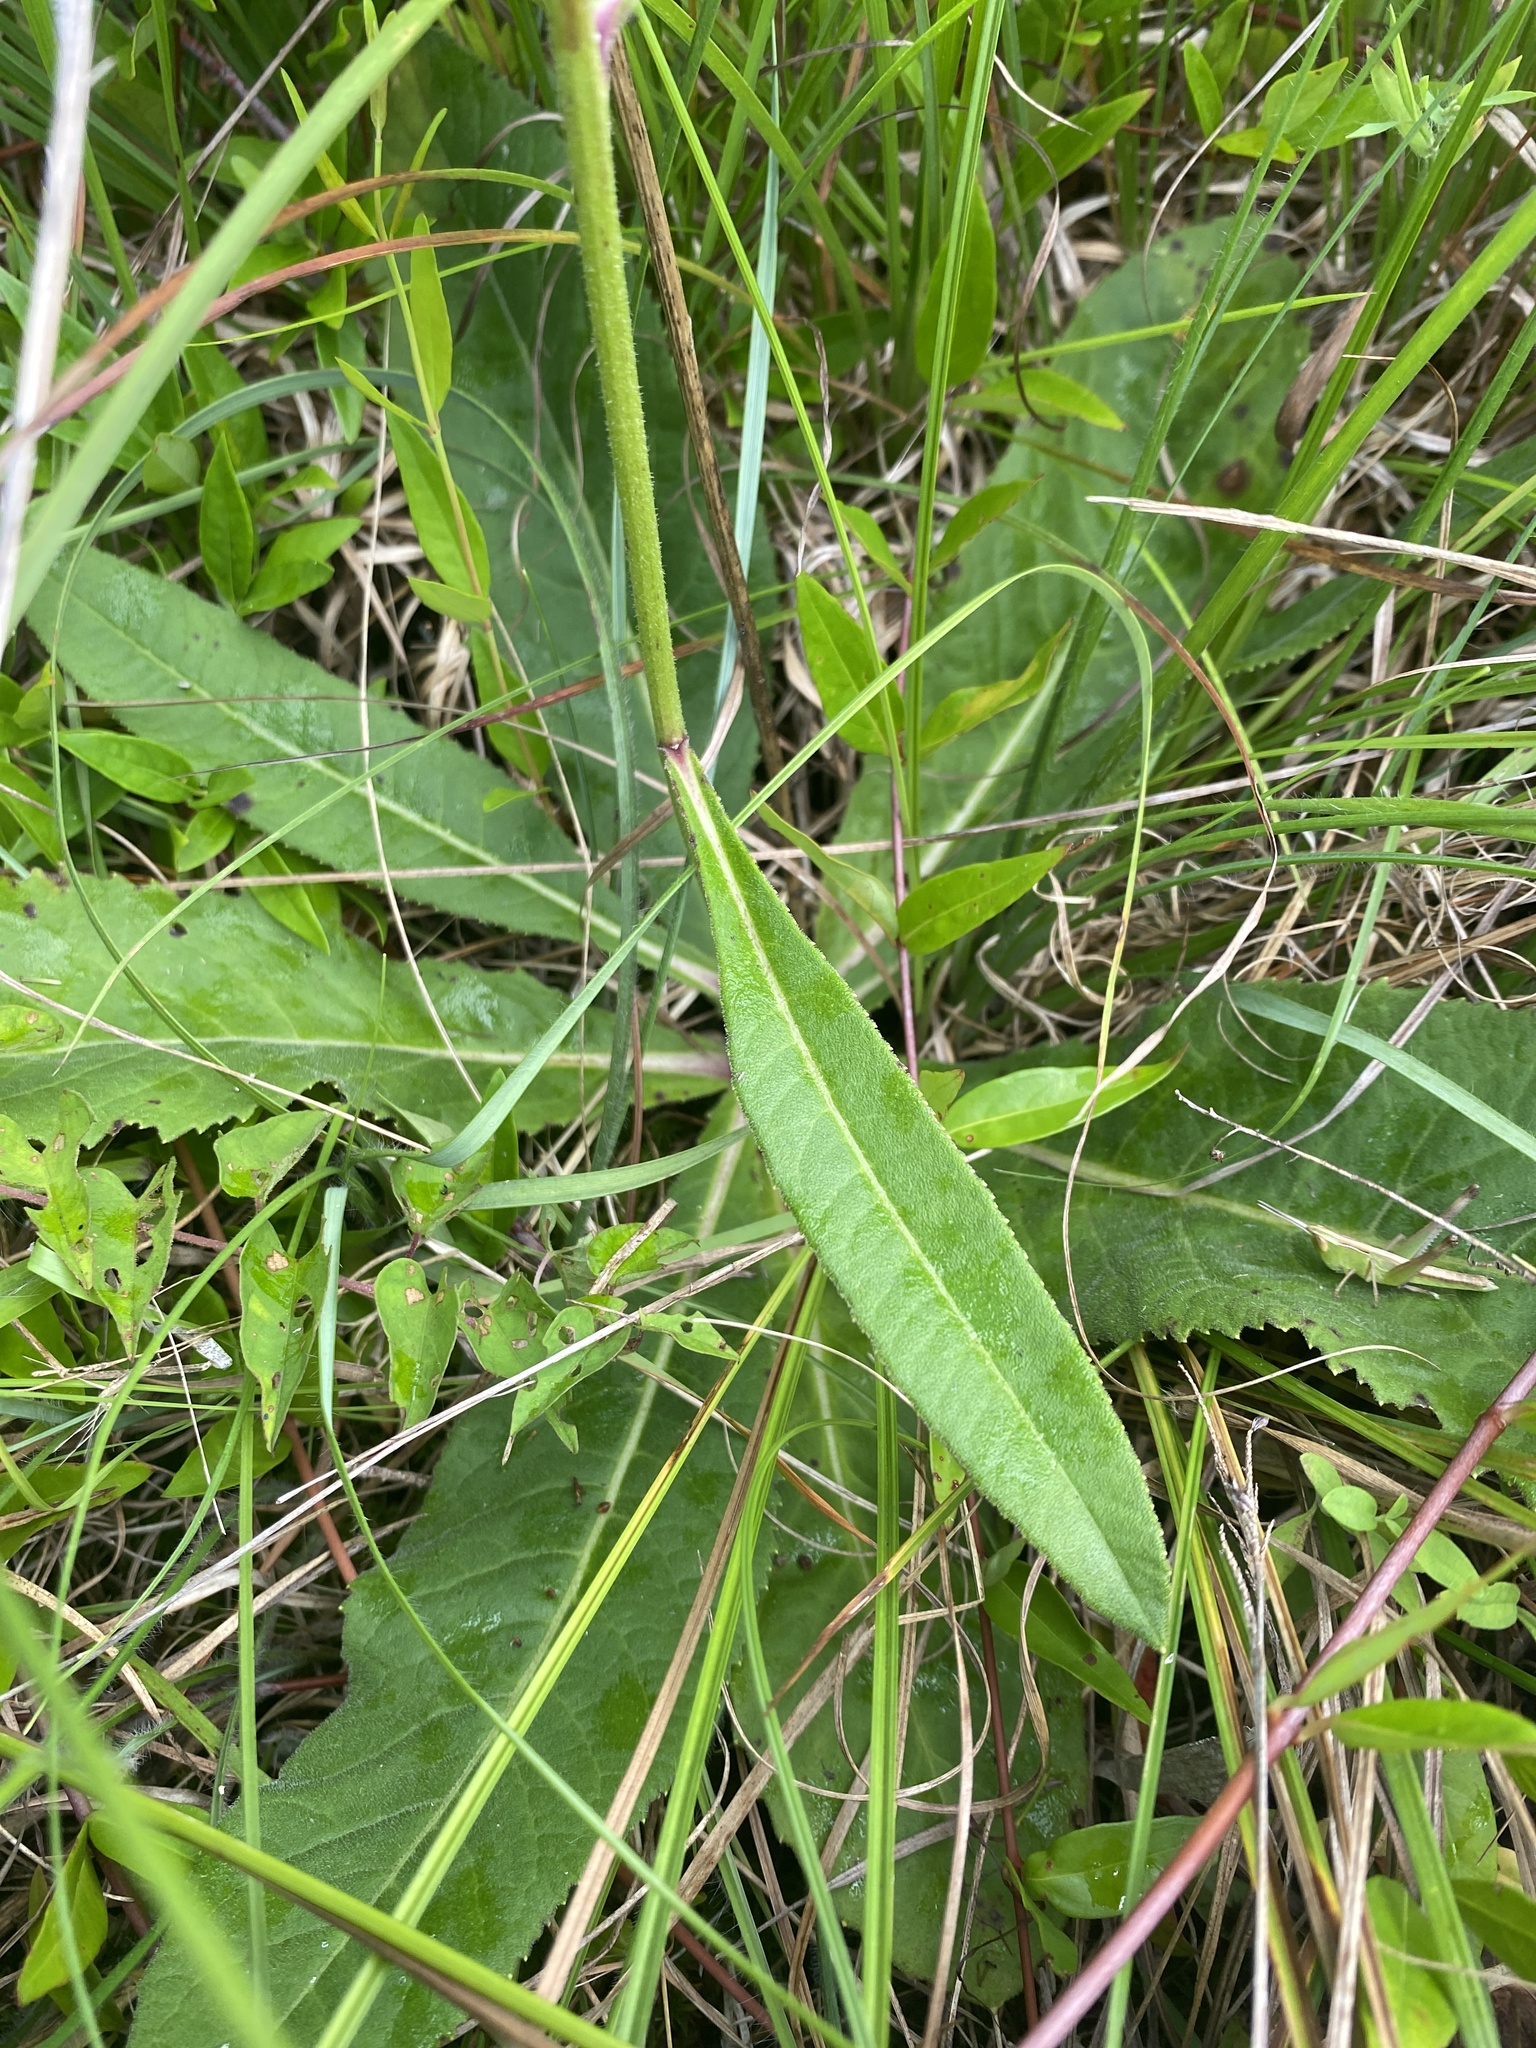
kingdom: Plantae
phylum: Tracheophyta
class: Magnoliopsida
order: Asterales
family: Asteraceae
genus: Vernonia
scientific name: Vernonia acaulis
